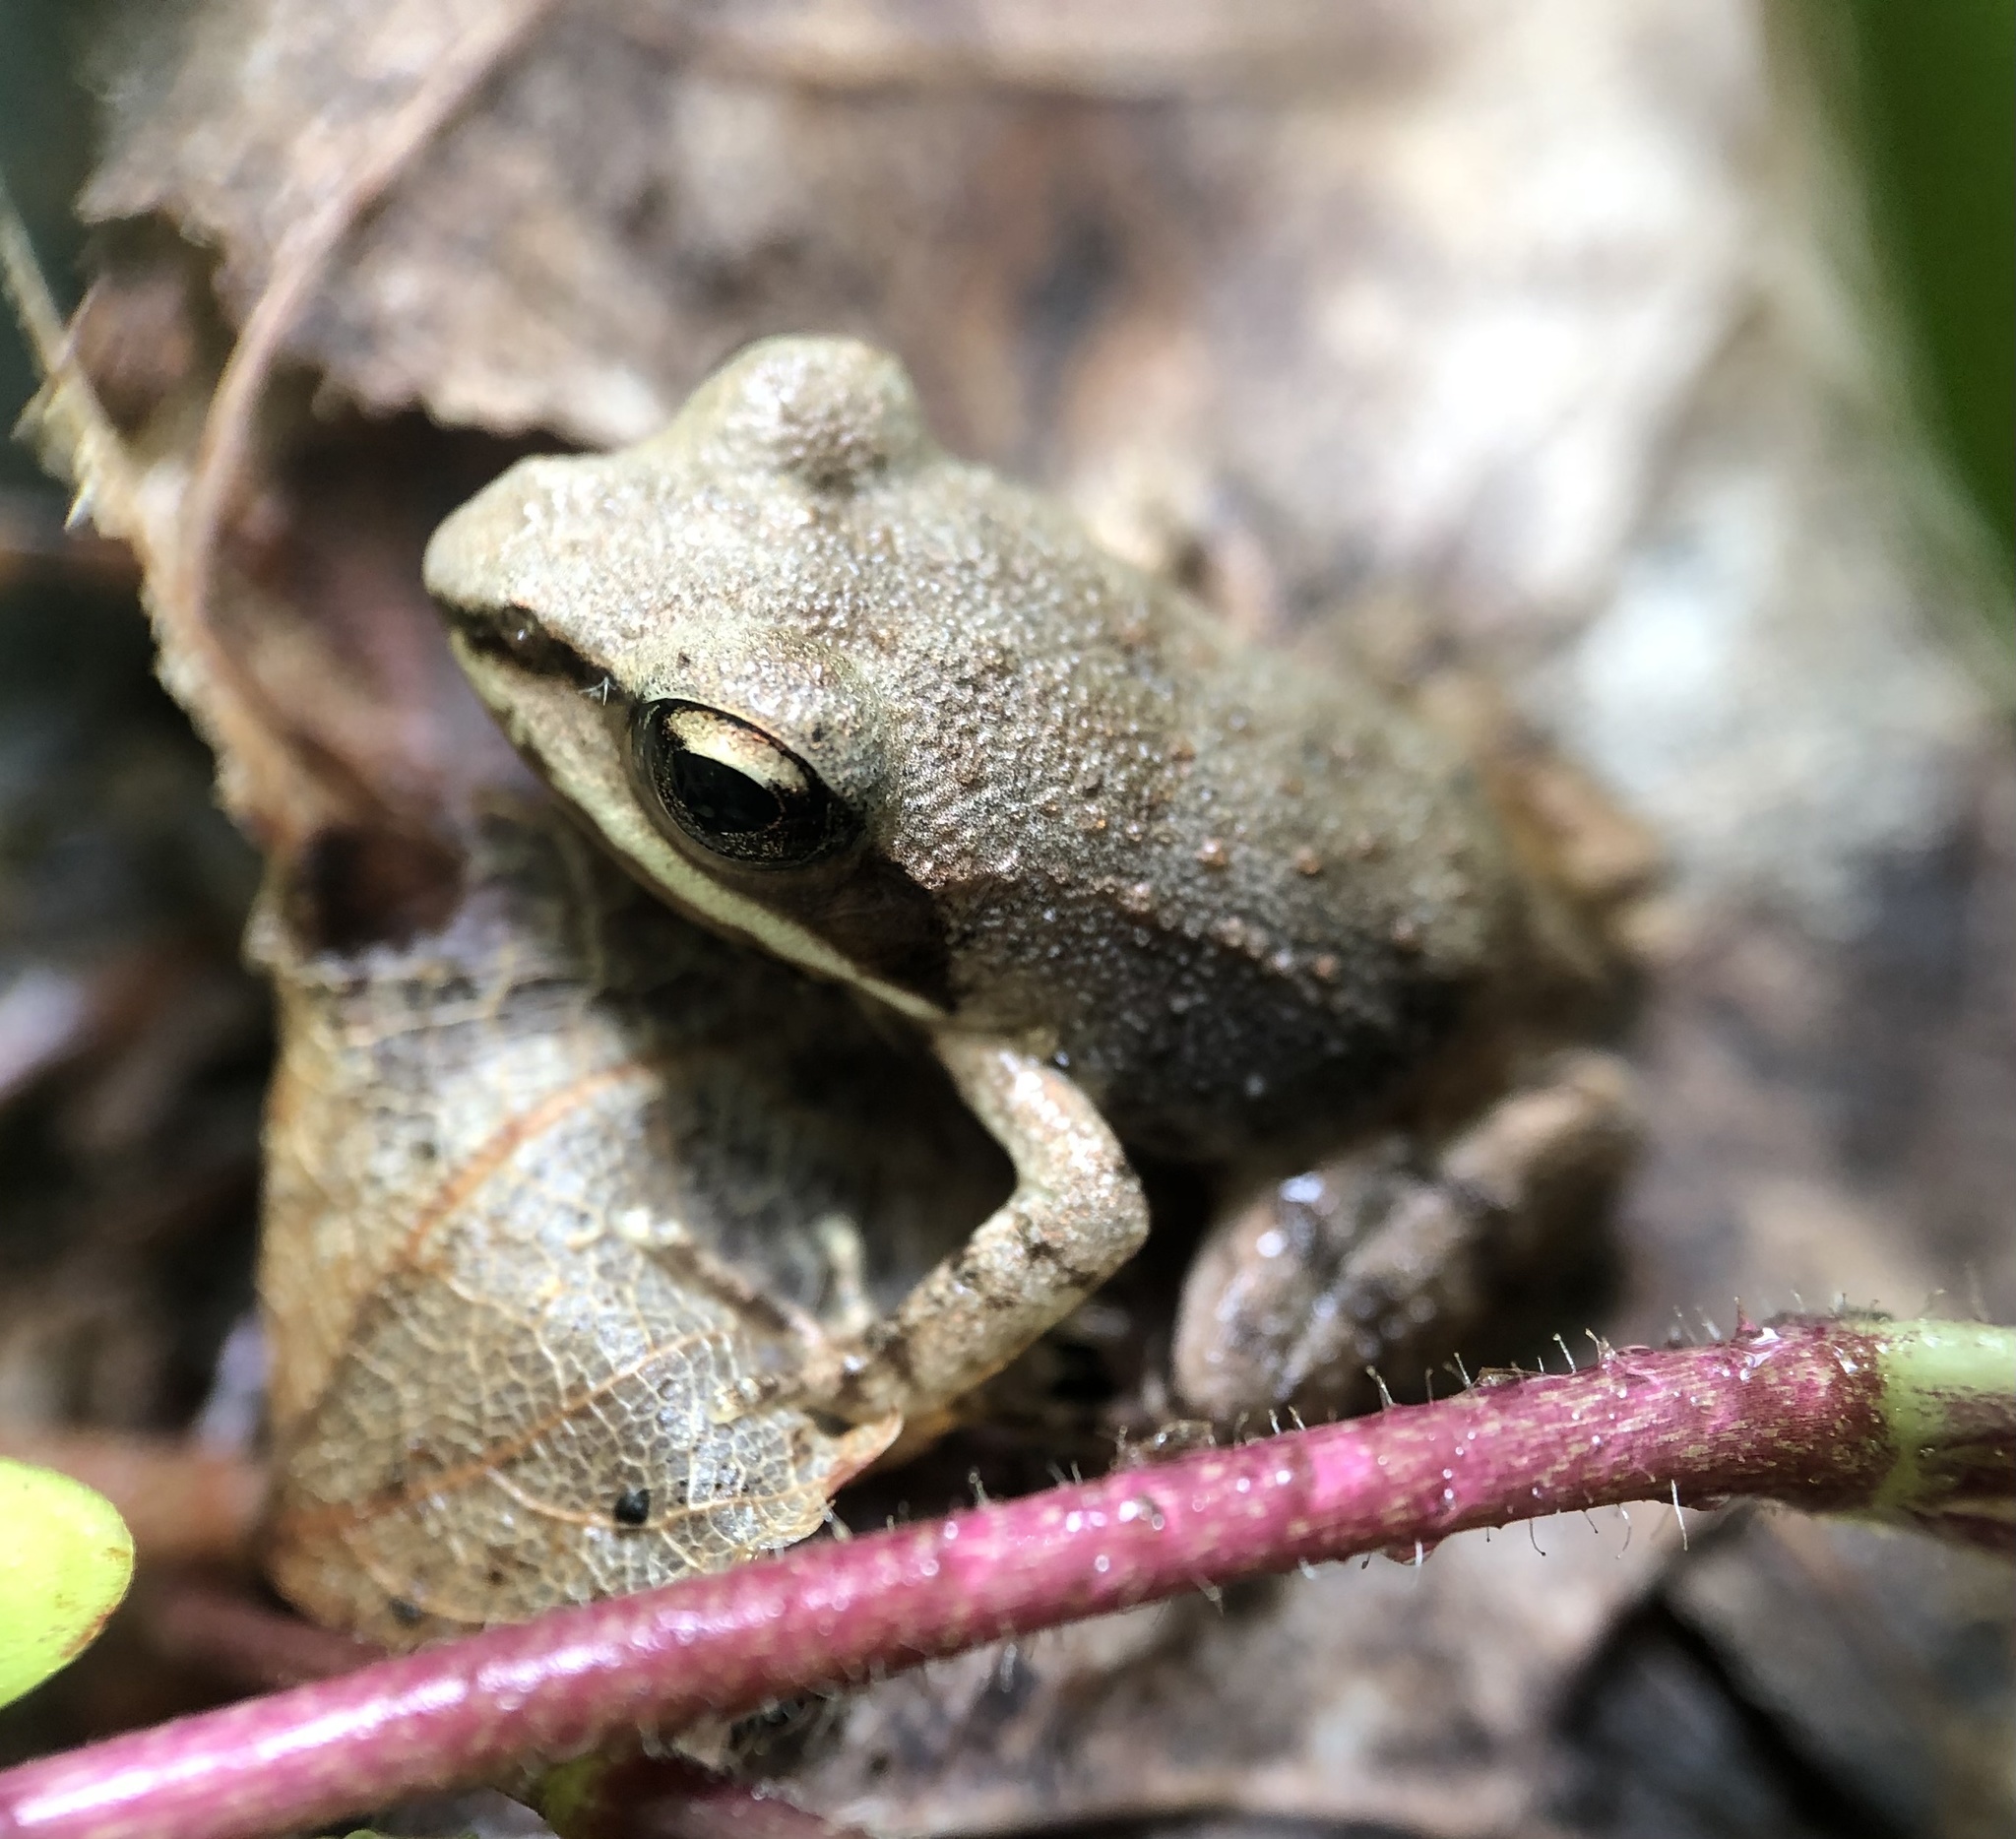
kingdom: Animalia
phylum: Chordata
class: Amphibia
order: Anura
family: Ranidae
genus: Lithobates
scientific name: Lithobates sylvaticus
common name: Wood frog
